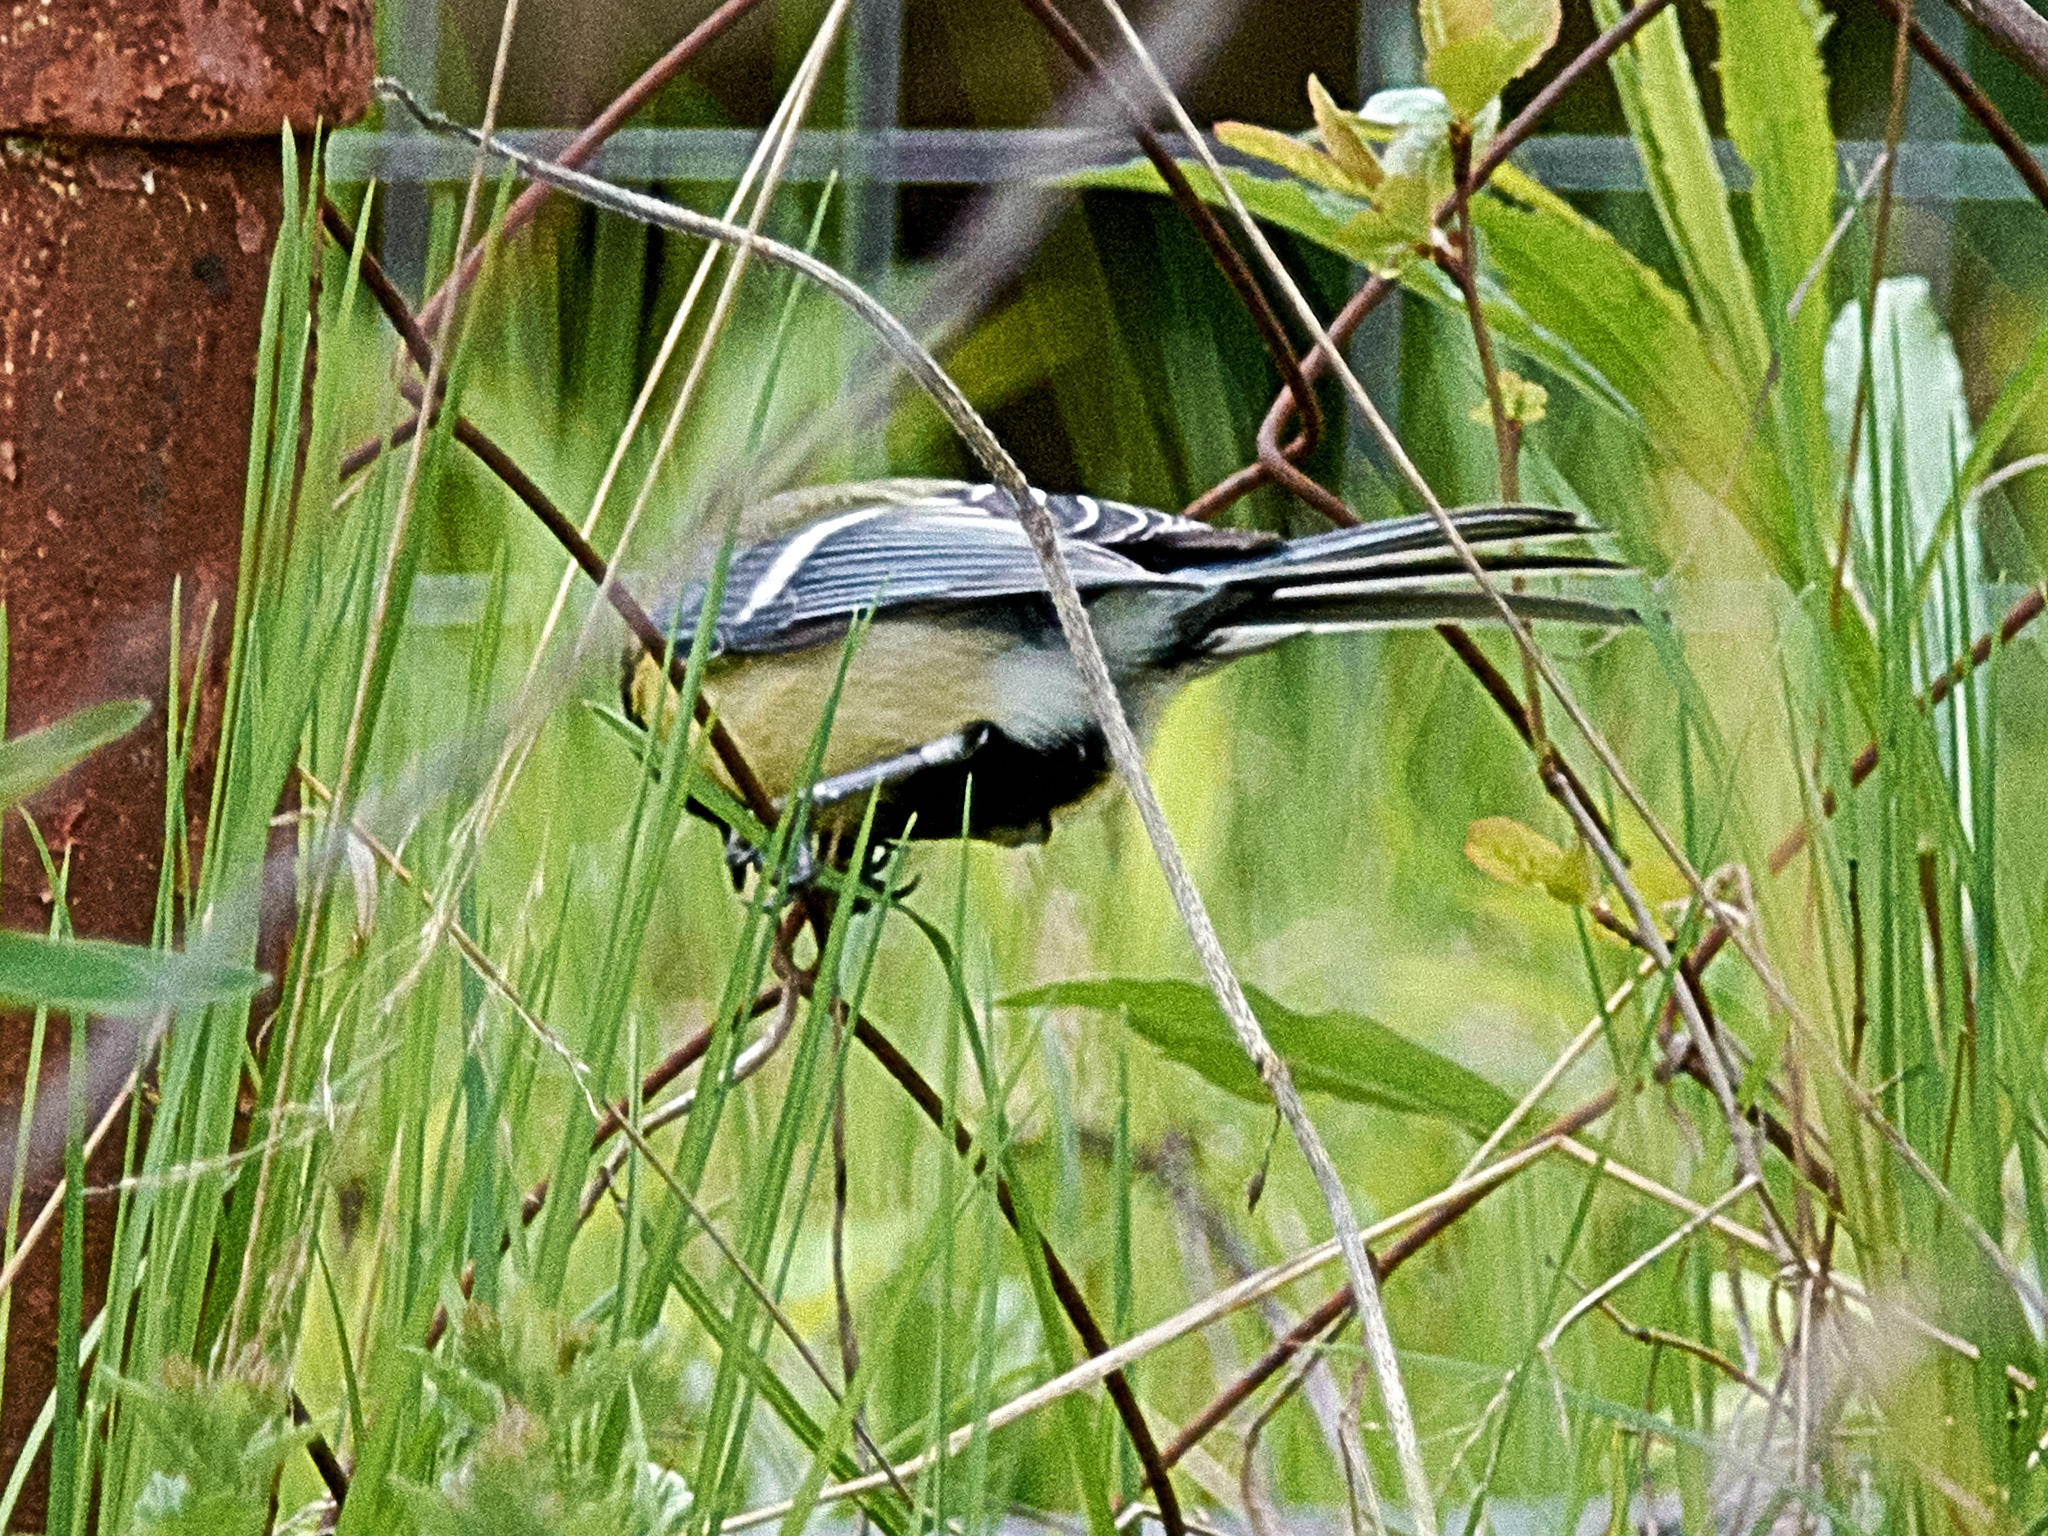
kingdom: Animalia
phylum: Chordata
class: Aves
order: Passeriformes
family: Paridae
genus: Parus
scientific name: Parus major
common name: Great tit
